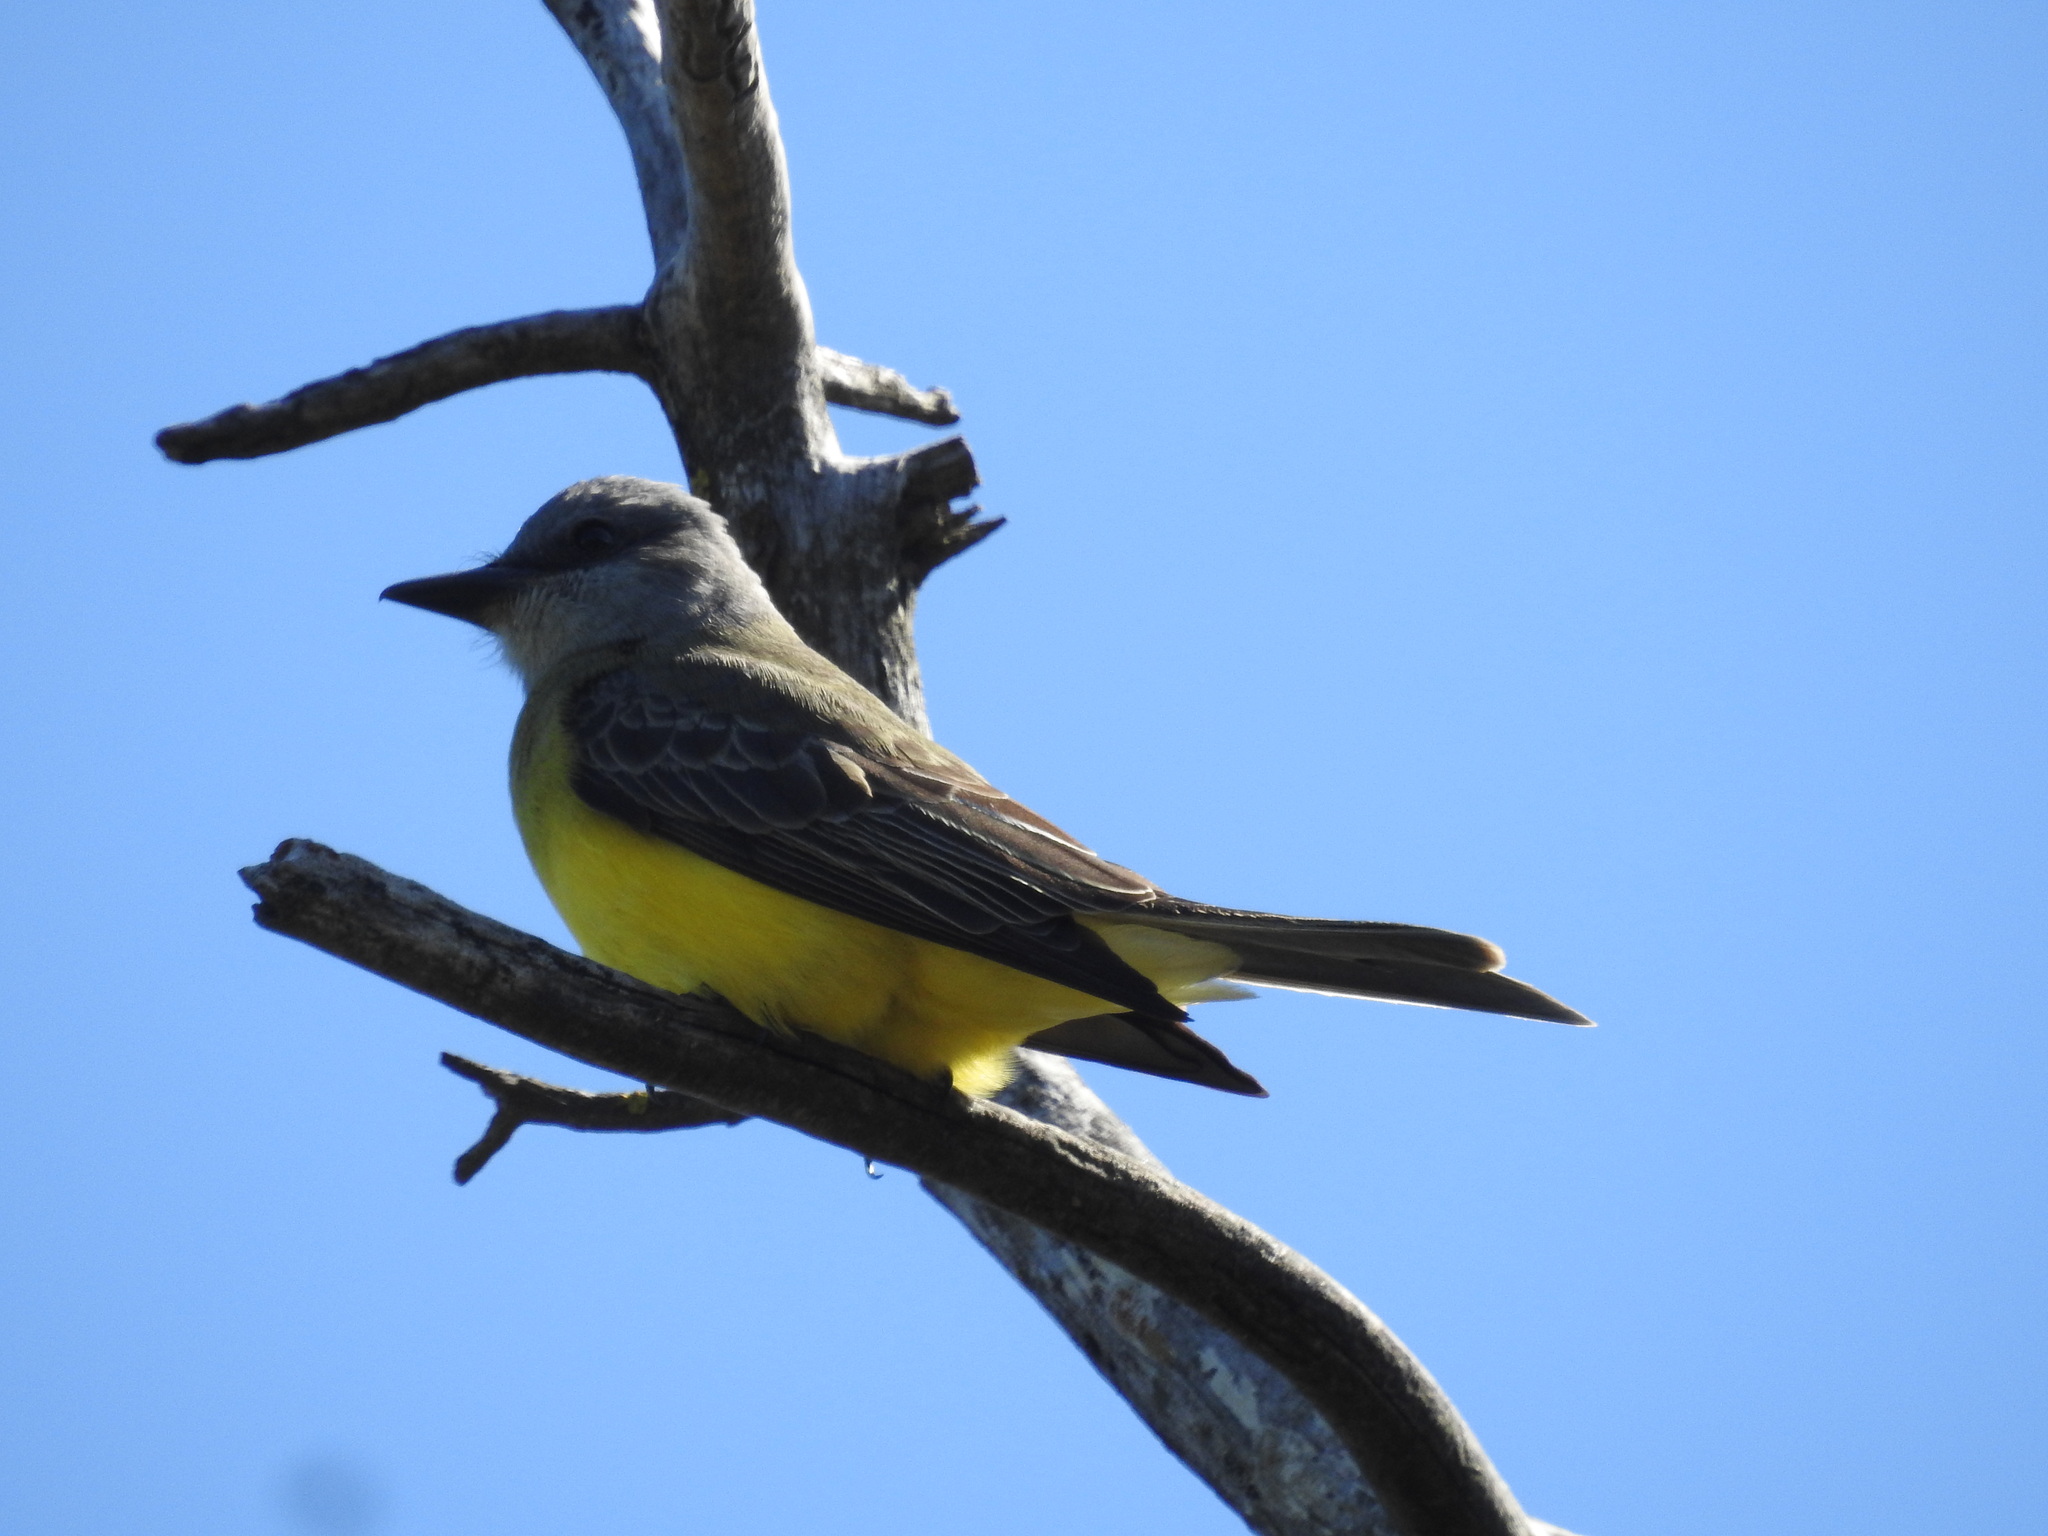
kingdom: Animalia
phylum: Chordata
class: Aves
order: Passeriformes
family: Tyrannidae
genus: Tyrannus
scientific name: Tyrannus melancholicus
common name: Tropical kingbird
